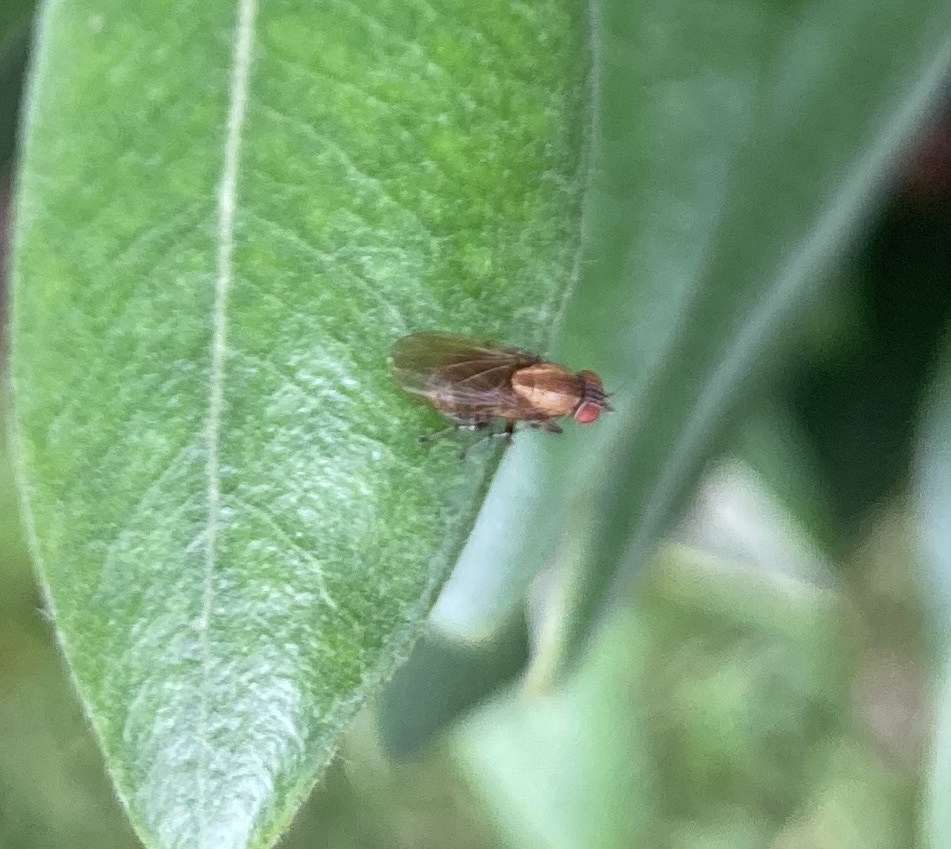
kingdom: Animalia
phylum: Arthropoda
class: Insecta
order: Diptera
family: Lauxaniidae
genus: Sapromyza
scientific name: Sapromyza neozelandica
